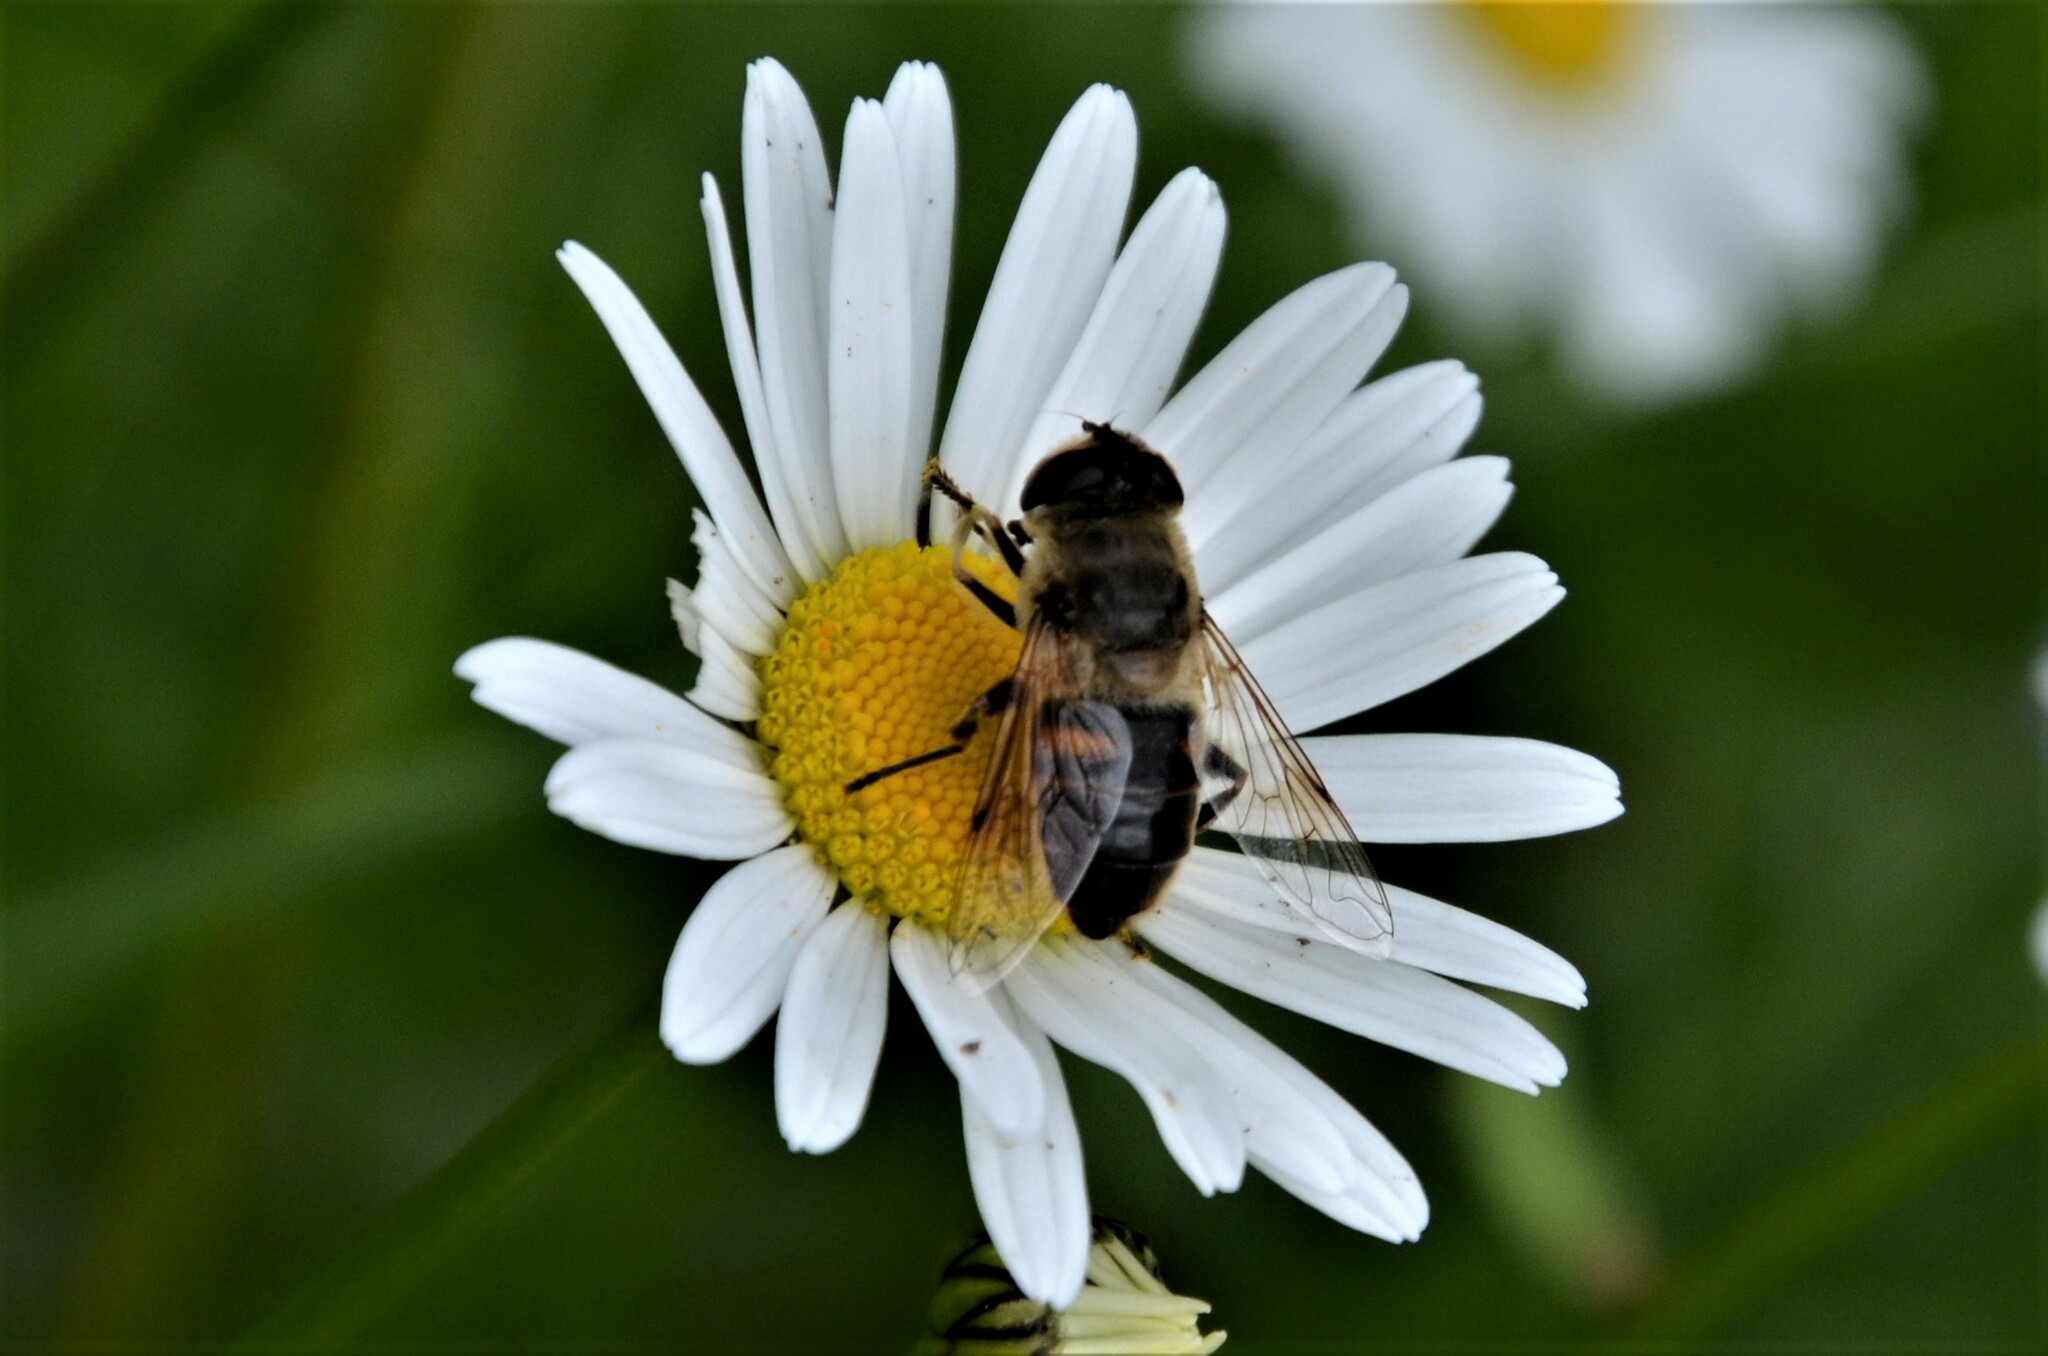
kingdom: Animalia
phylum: Arthropoda
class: Insecta
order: Diptera
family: Syrphidae
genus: Eristalis
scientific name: Eristalis tenax
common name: Drone fly
